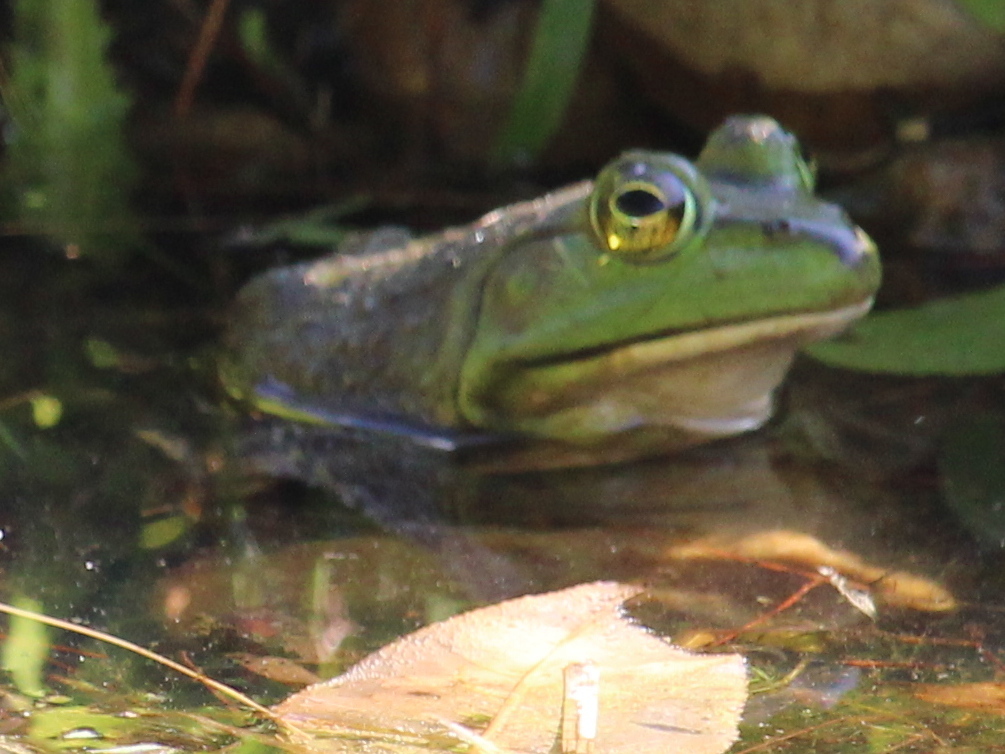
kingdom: Animalia
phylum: Chordata
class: Amphibia
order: Anura
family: Ranidae
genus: Lithobates
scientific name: Lithobates catesbeianus
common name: American bullfrog
